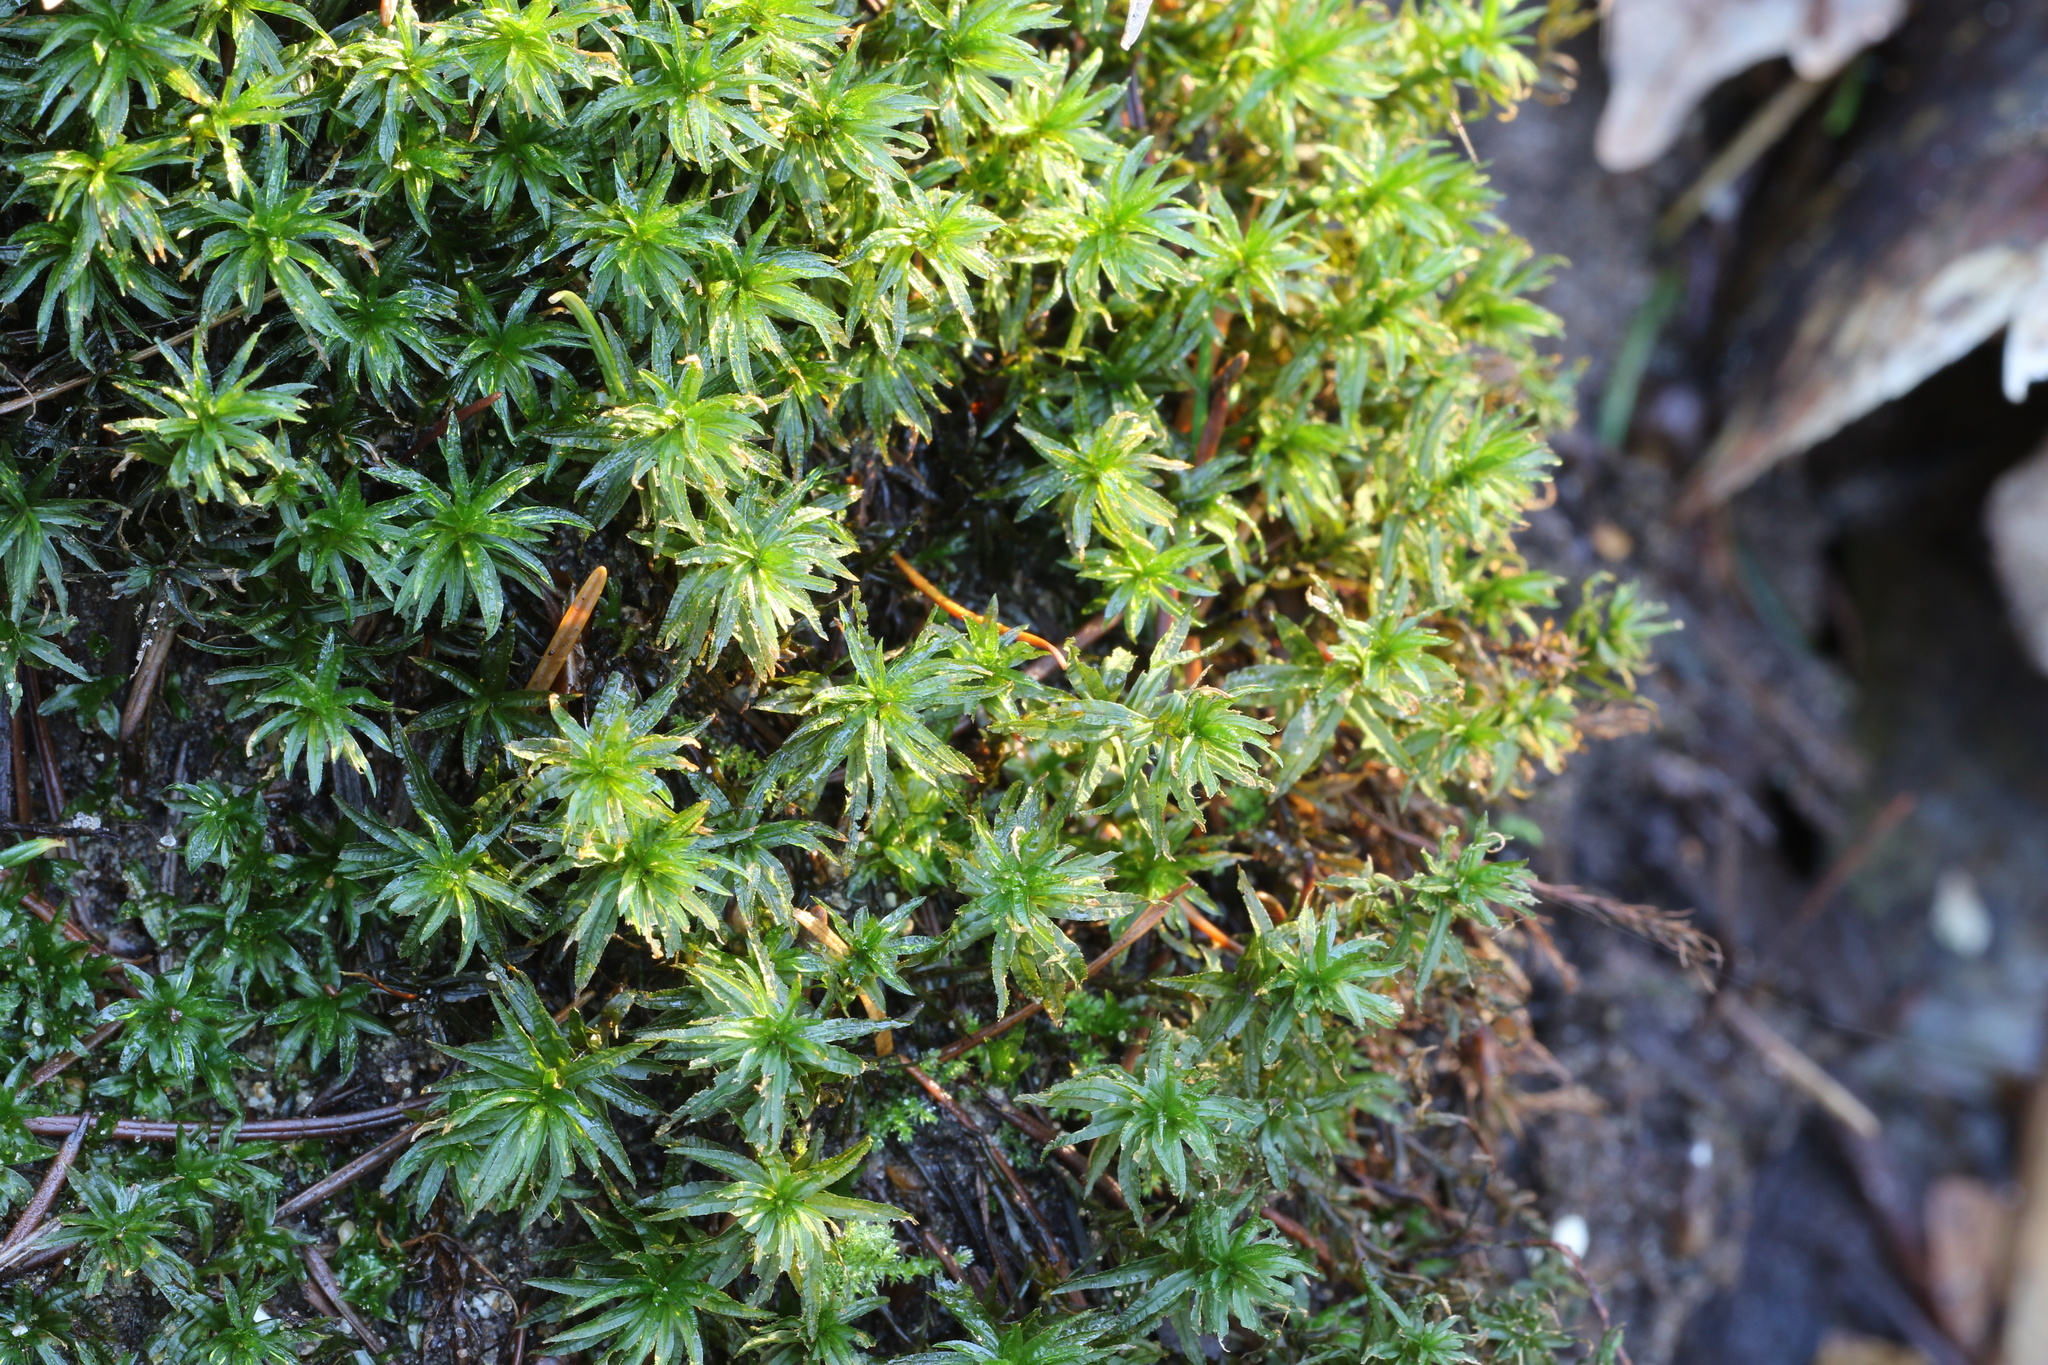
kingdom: Plantae
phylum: Bryophyta
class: Polytrichopsida
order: Polytrichales
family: Polytrichaceae
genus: Atrichum
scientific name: Atrichum undulatum
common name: Common smoothcap
